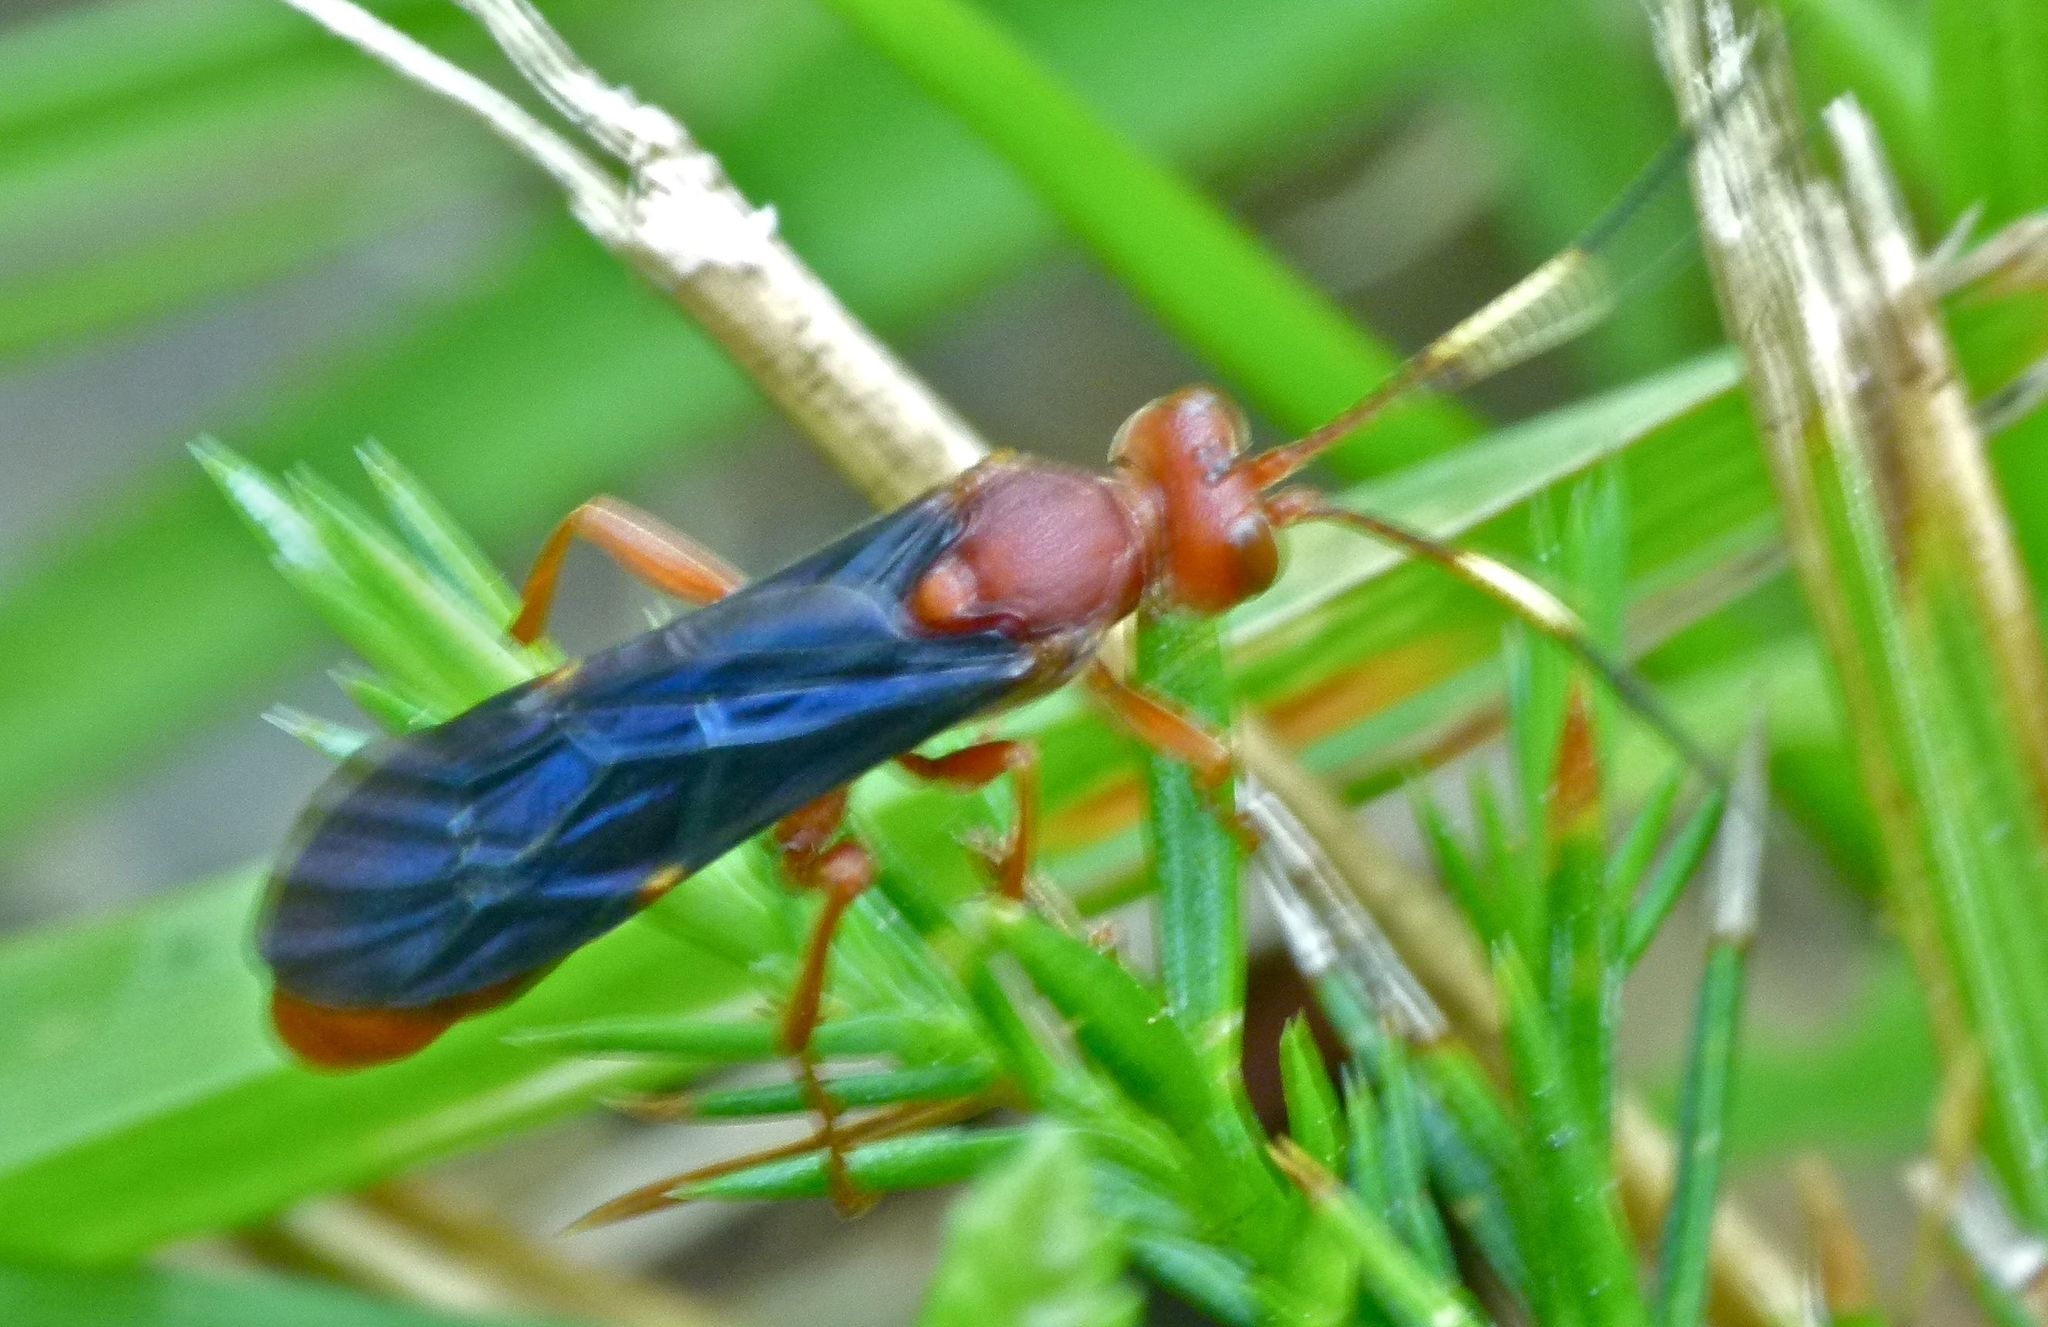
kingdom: Animalia
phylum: Arthropoda
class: Insecta
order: Hymenoptera
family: Ichneumonidae
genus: Trogomorpha
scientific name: Trogomorpha trogiformis
